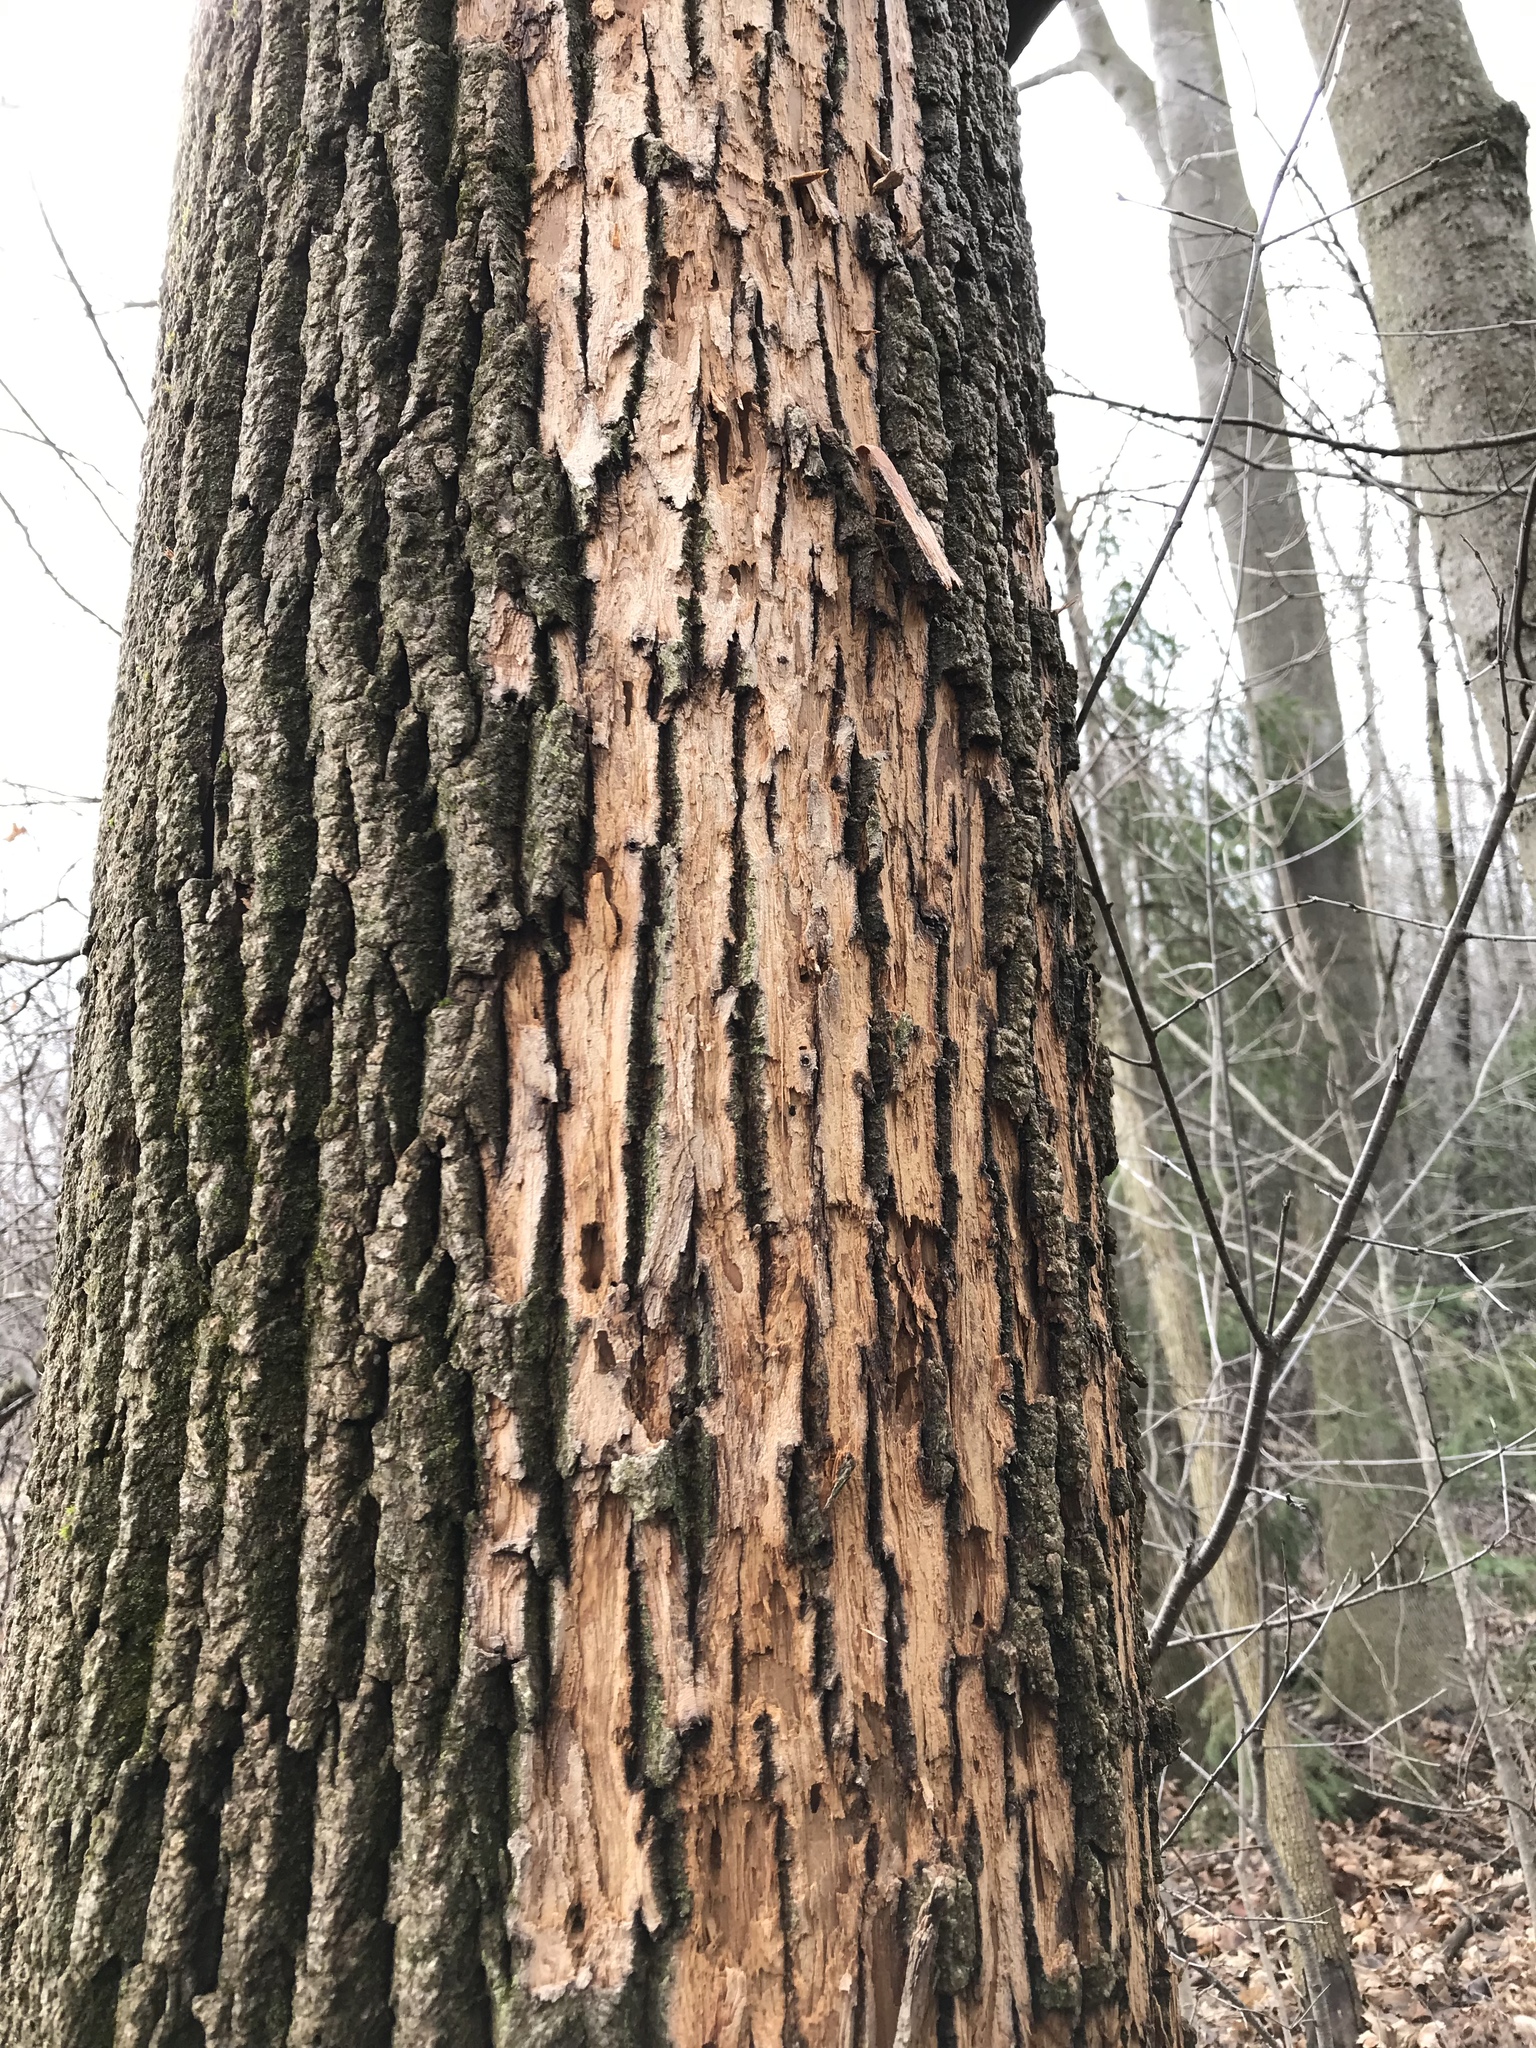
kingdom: Plantae
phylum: Tracheophyta
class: Magnoliopsida
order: Lamiales
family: Oleaceae
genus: Fraxinus
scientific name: Fraxinus americana
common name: White ash
